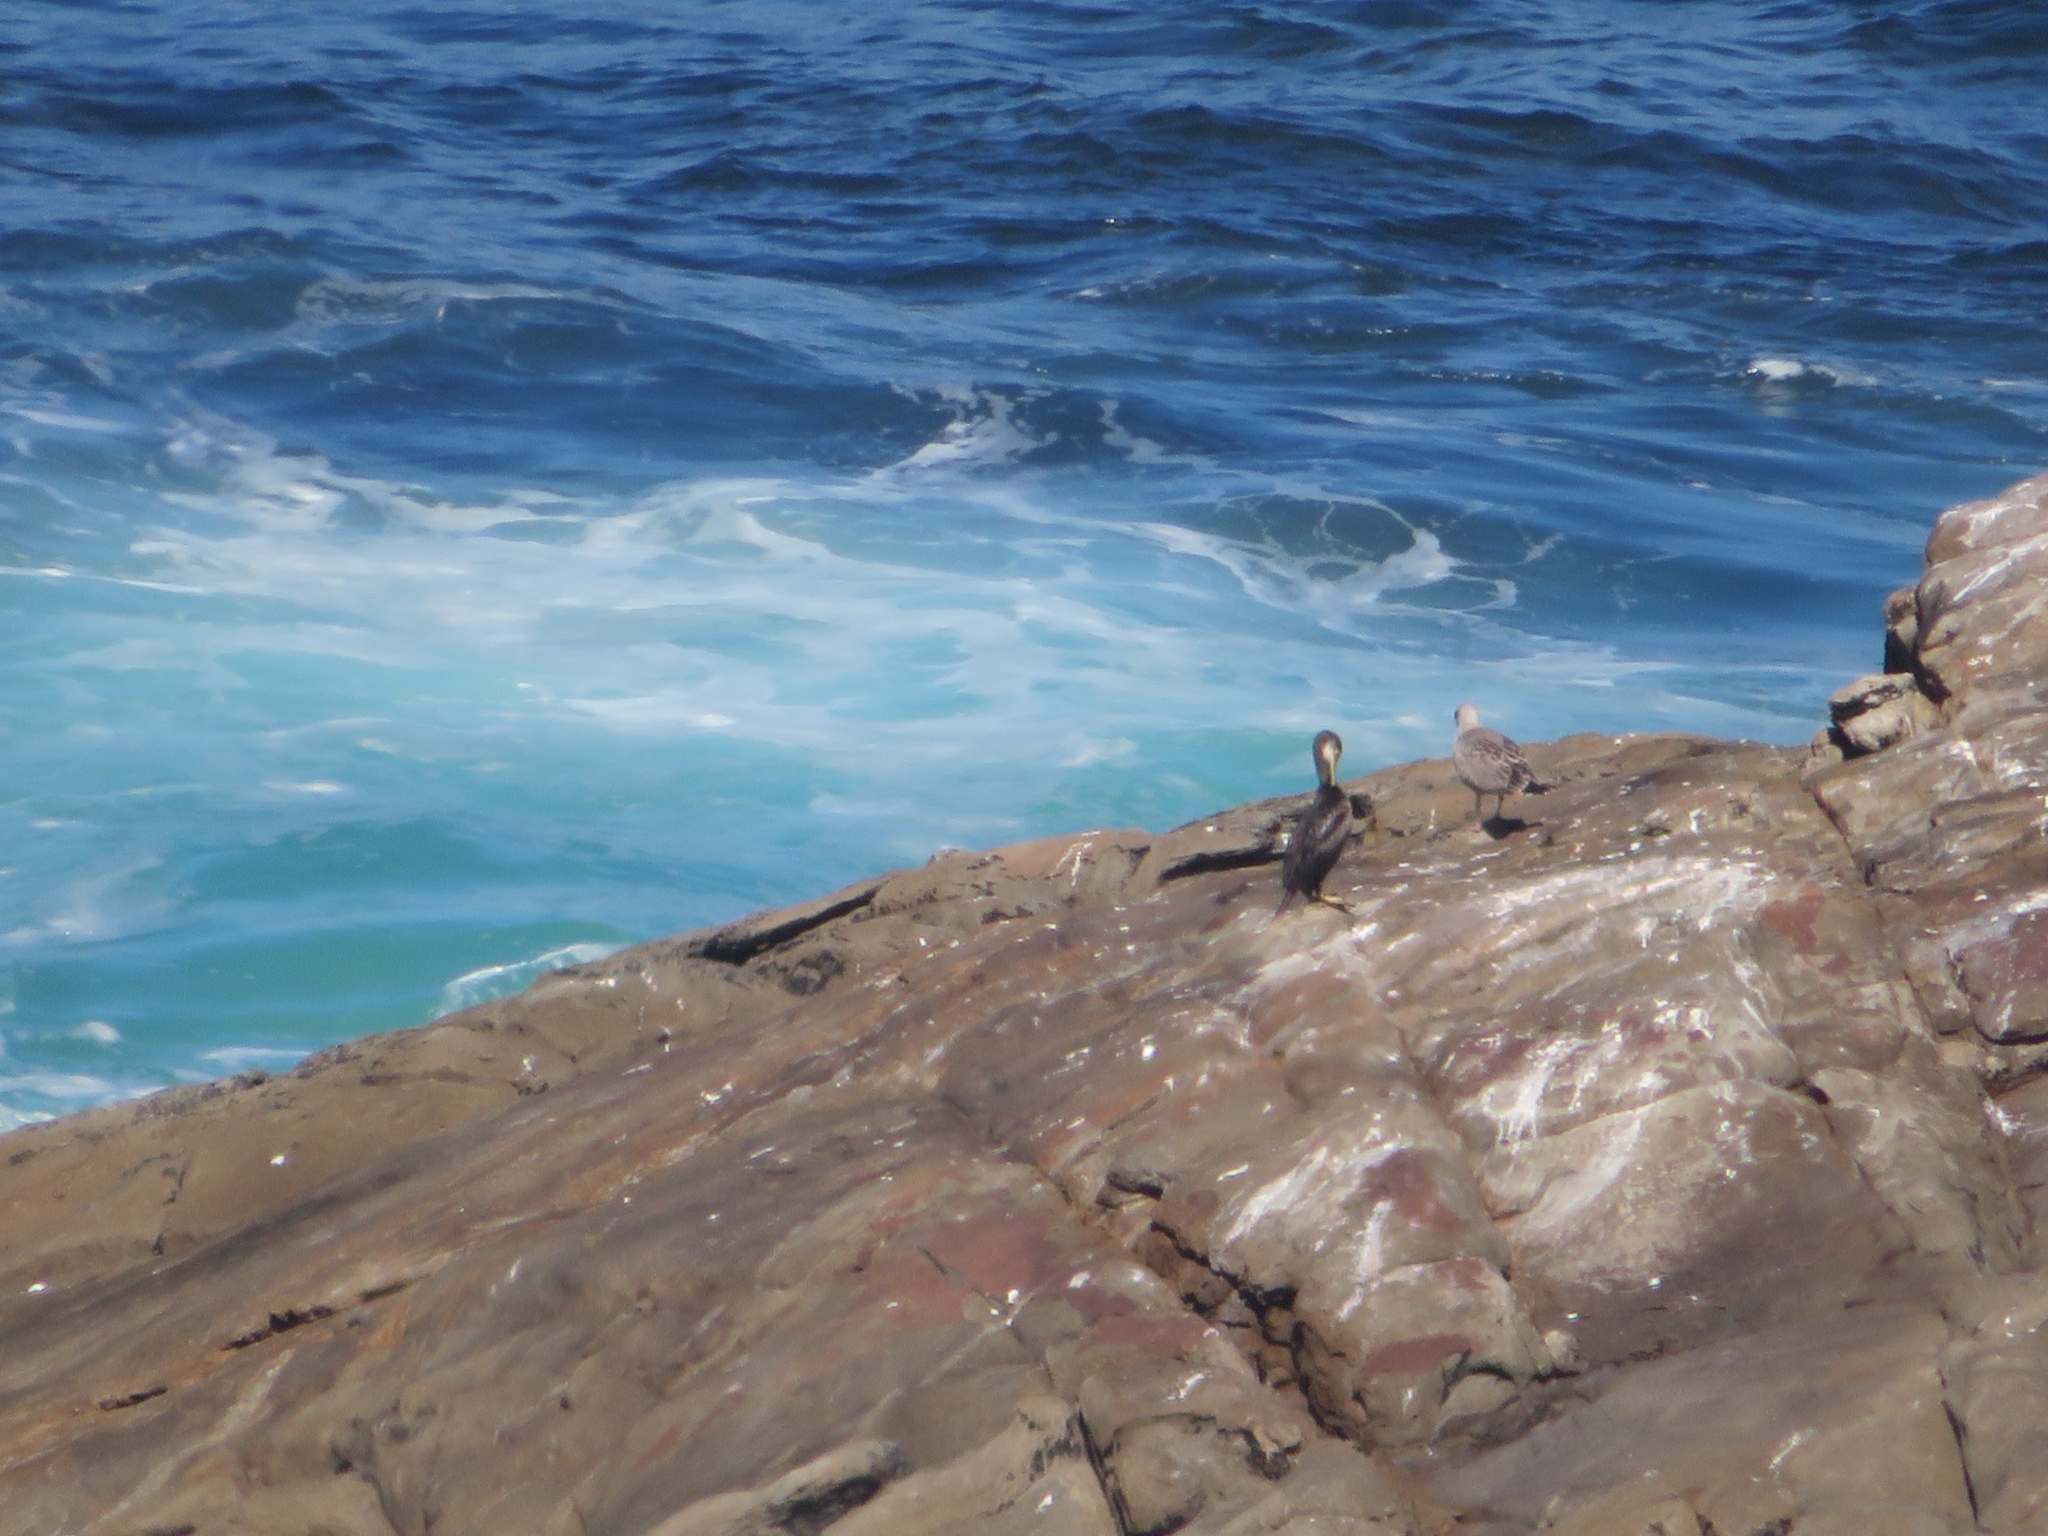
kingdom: Animalia
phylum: Chordata
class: Aves
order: Suliformes
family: Phalacrocoracidae
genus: Phalacrocorax
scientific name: Phalacrocorax aristotelis
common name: European shag
